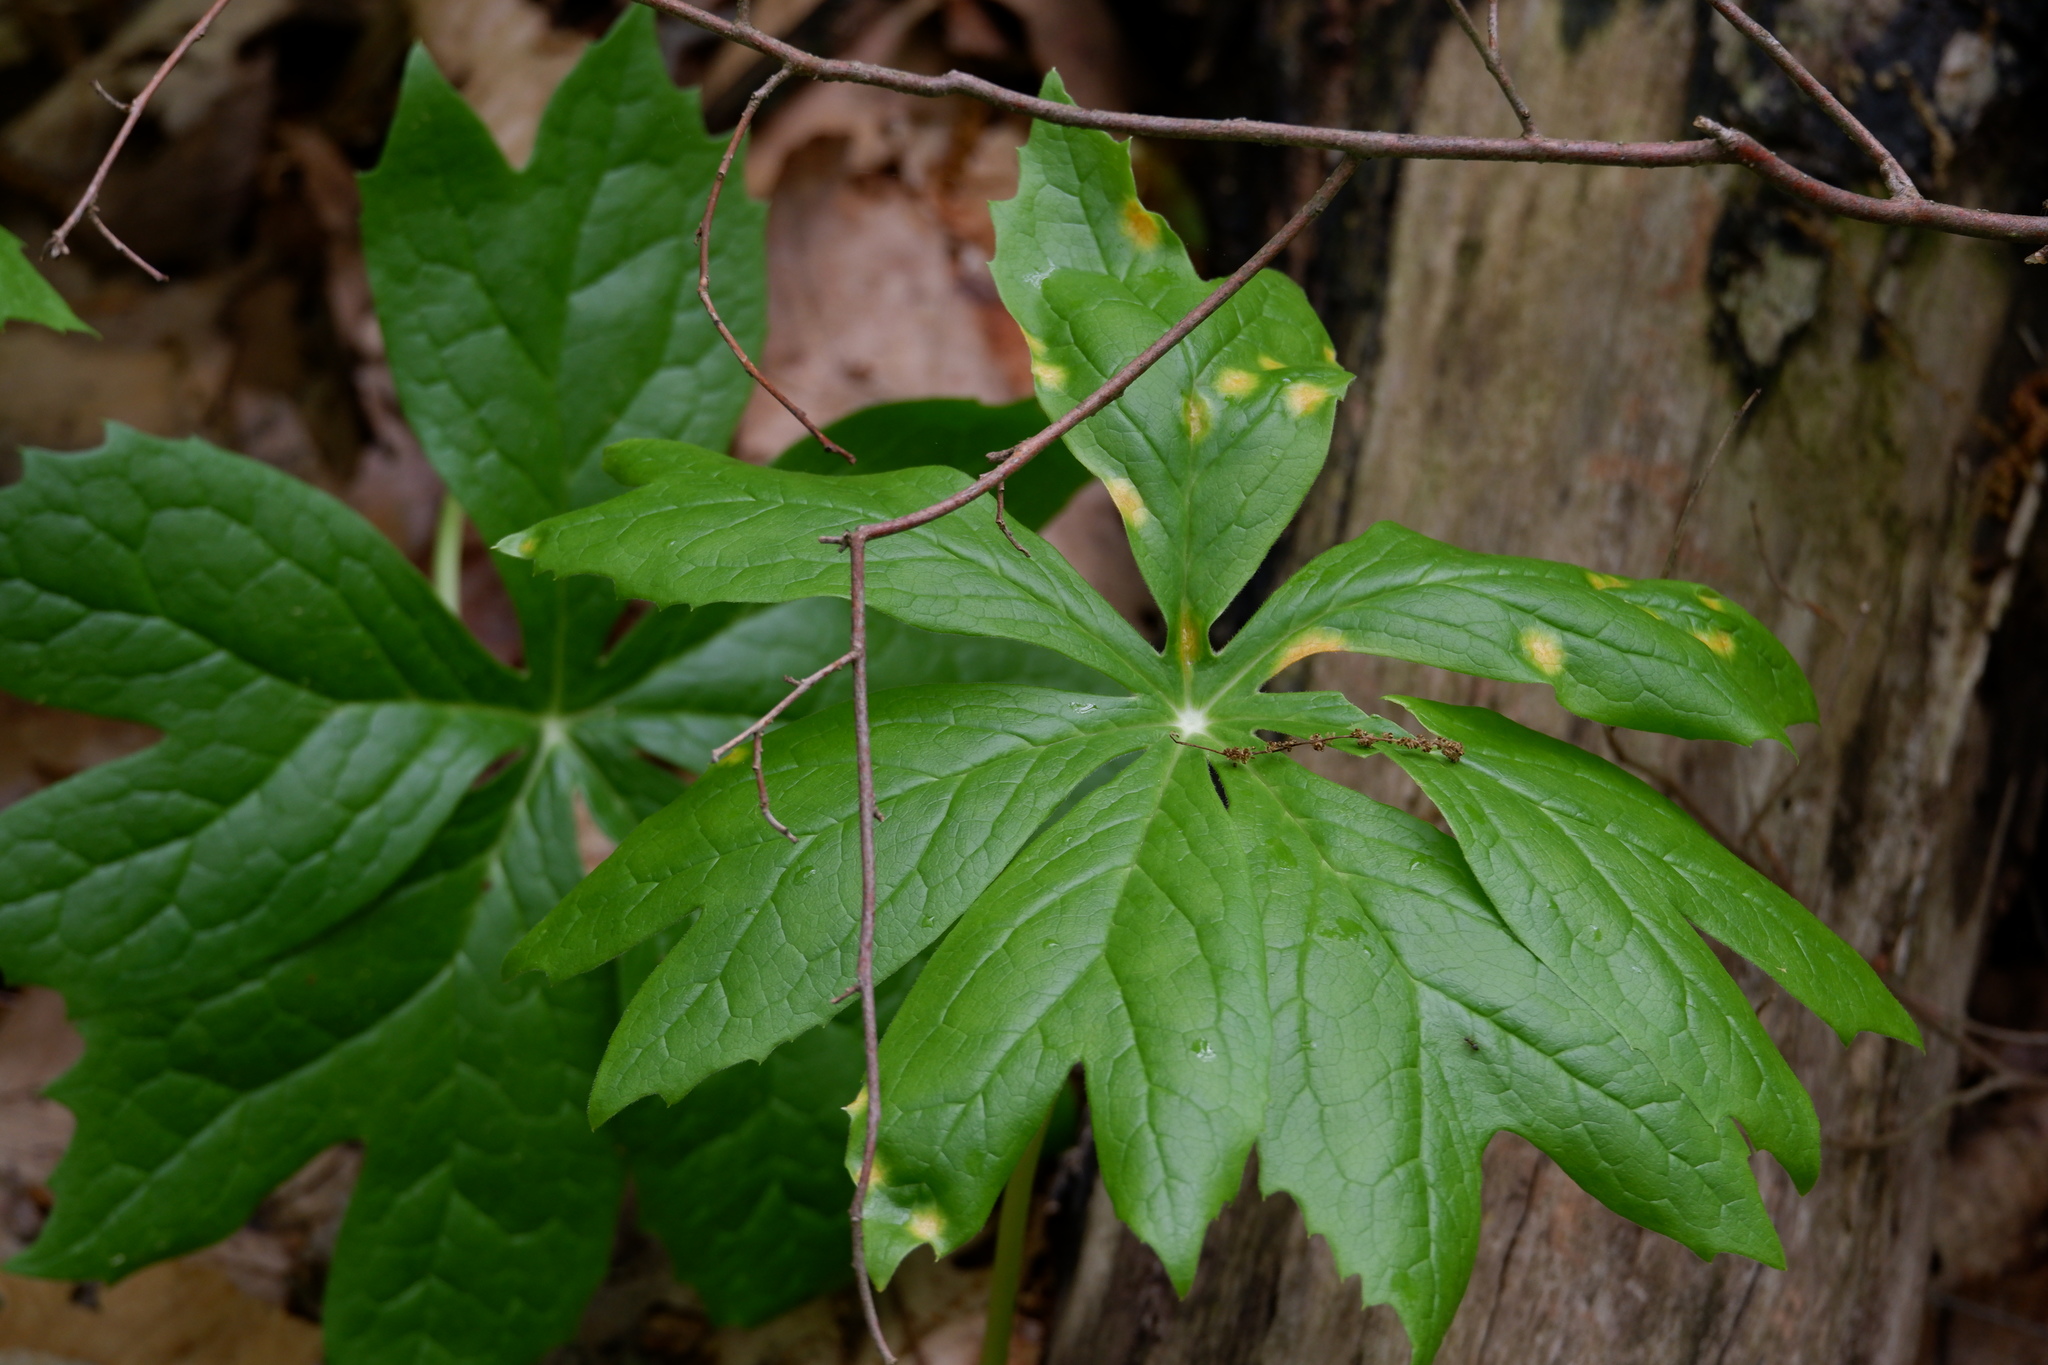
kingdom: Fungi
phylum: Basidiomycota
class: Pucciniomycetes
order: Pucciniales
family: Pucciniaceae
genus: Puccinia
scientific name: Puccinia podophylli
